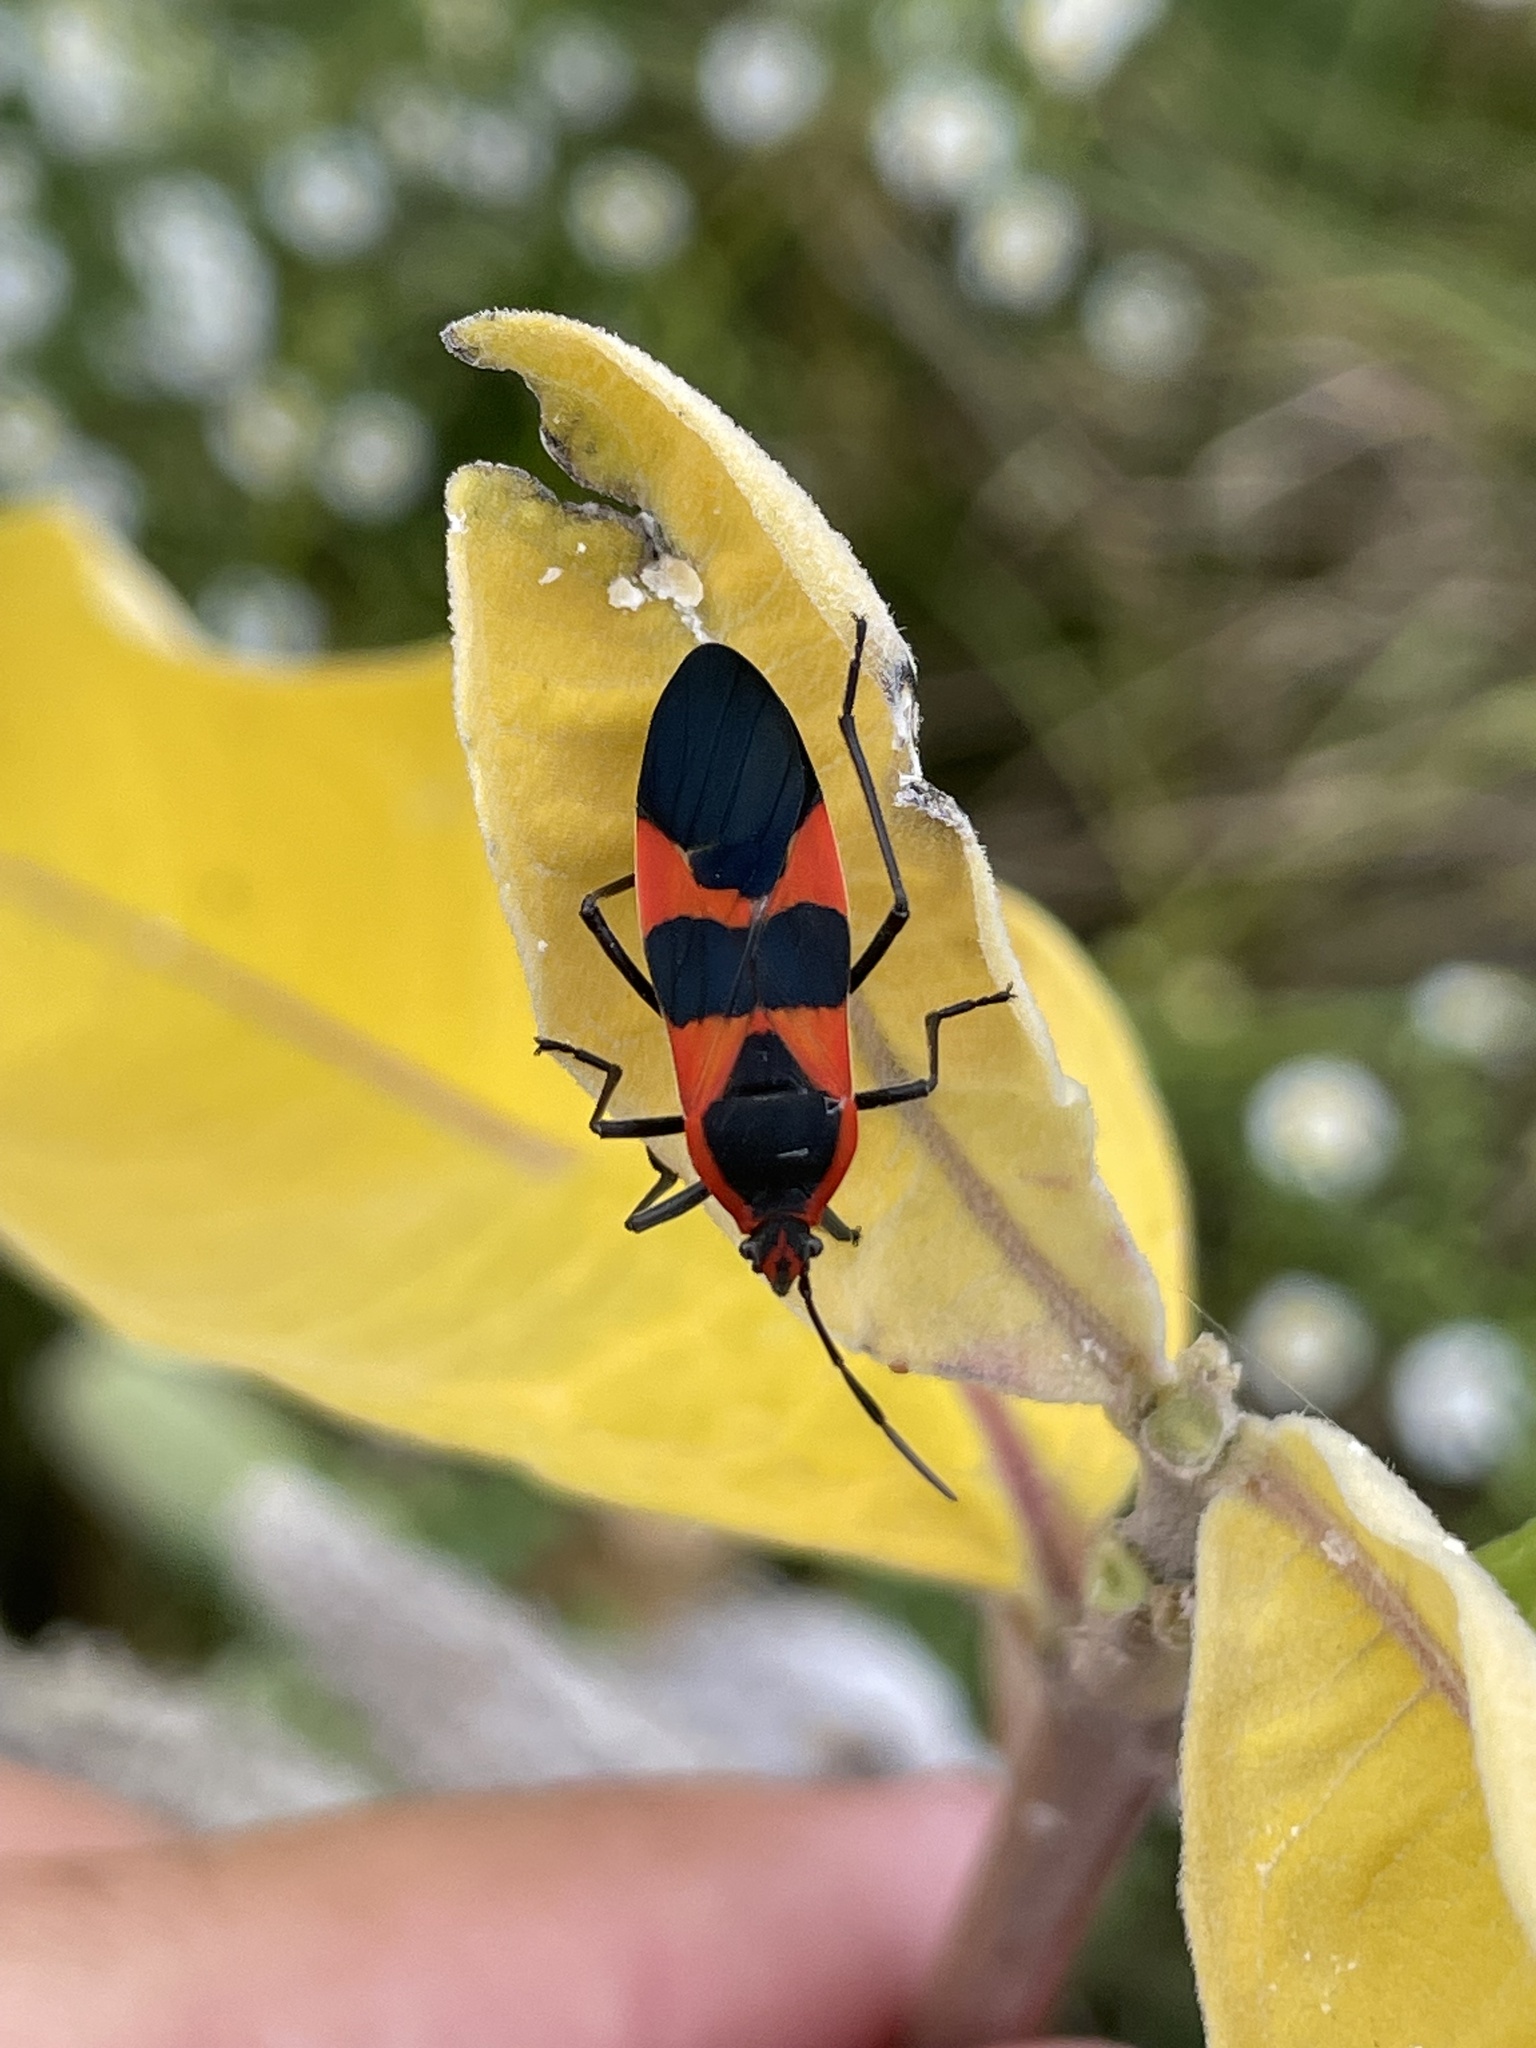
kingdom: Animalia
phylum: Arthropoda
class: Insecta
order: Hemiptera
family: Lygaeidae
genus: Oncopeltus
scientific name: Oncopeltus fasciatus
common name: Large milkweed bug
